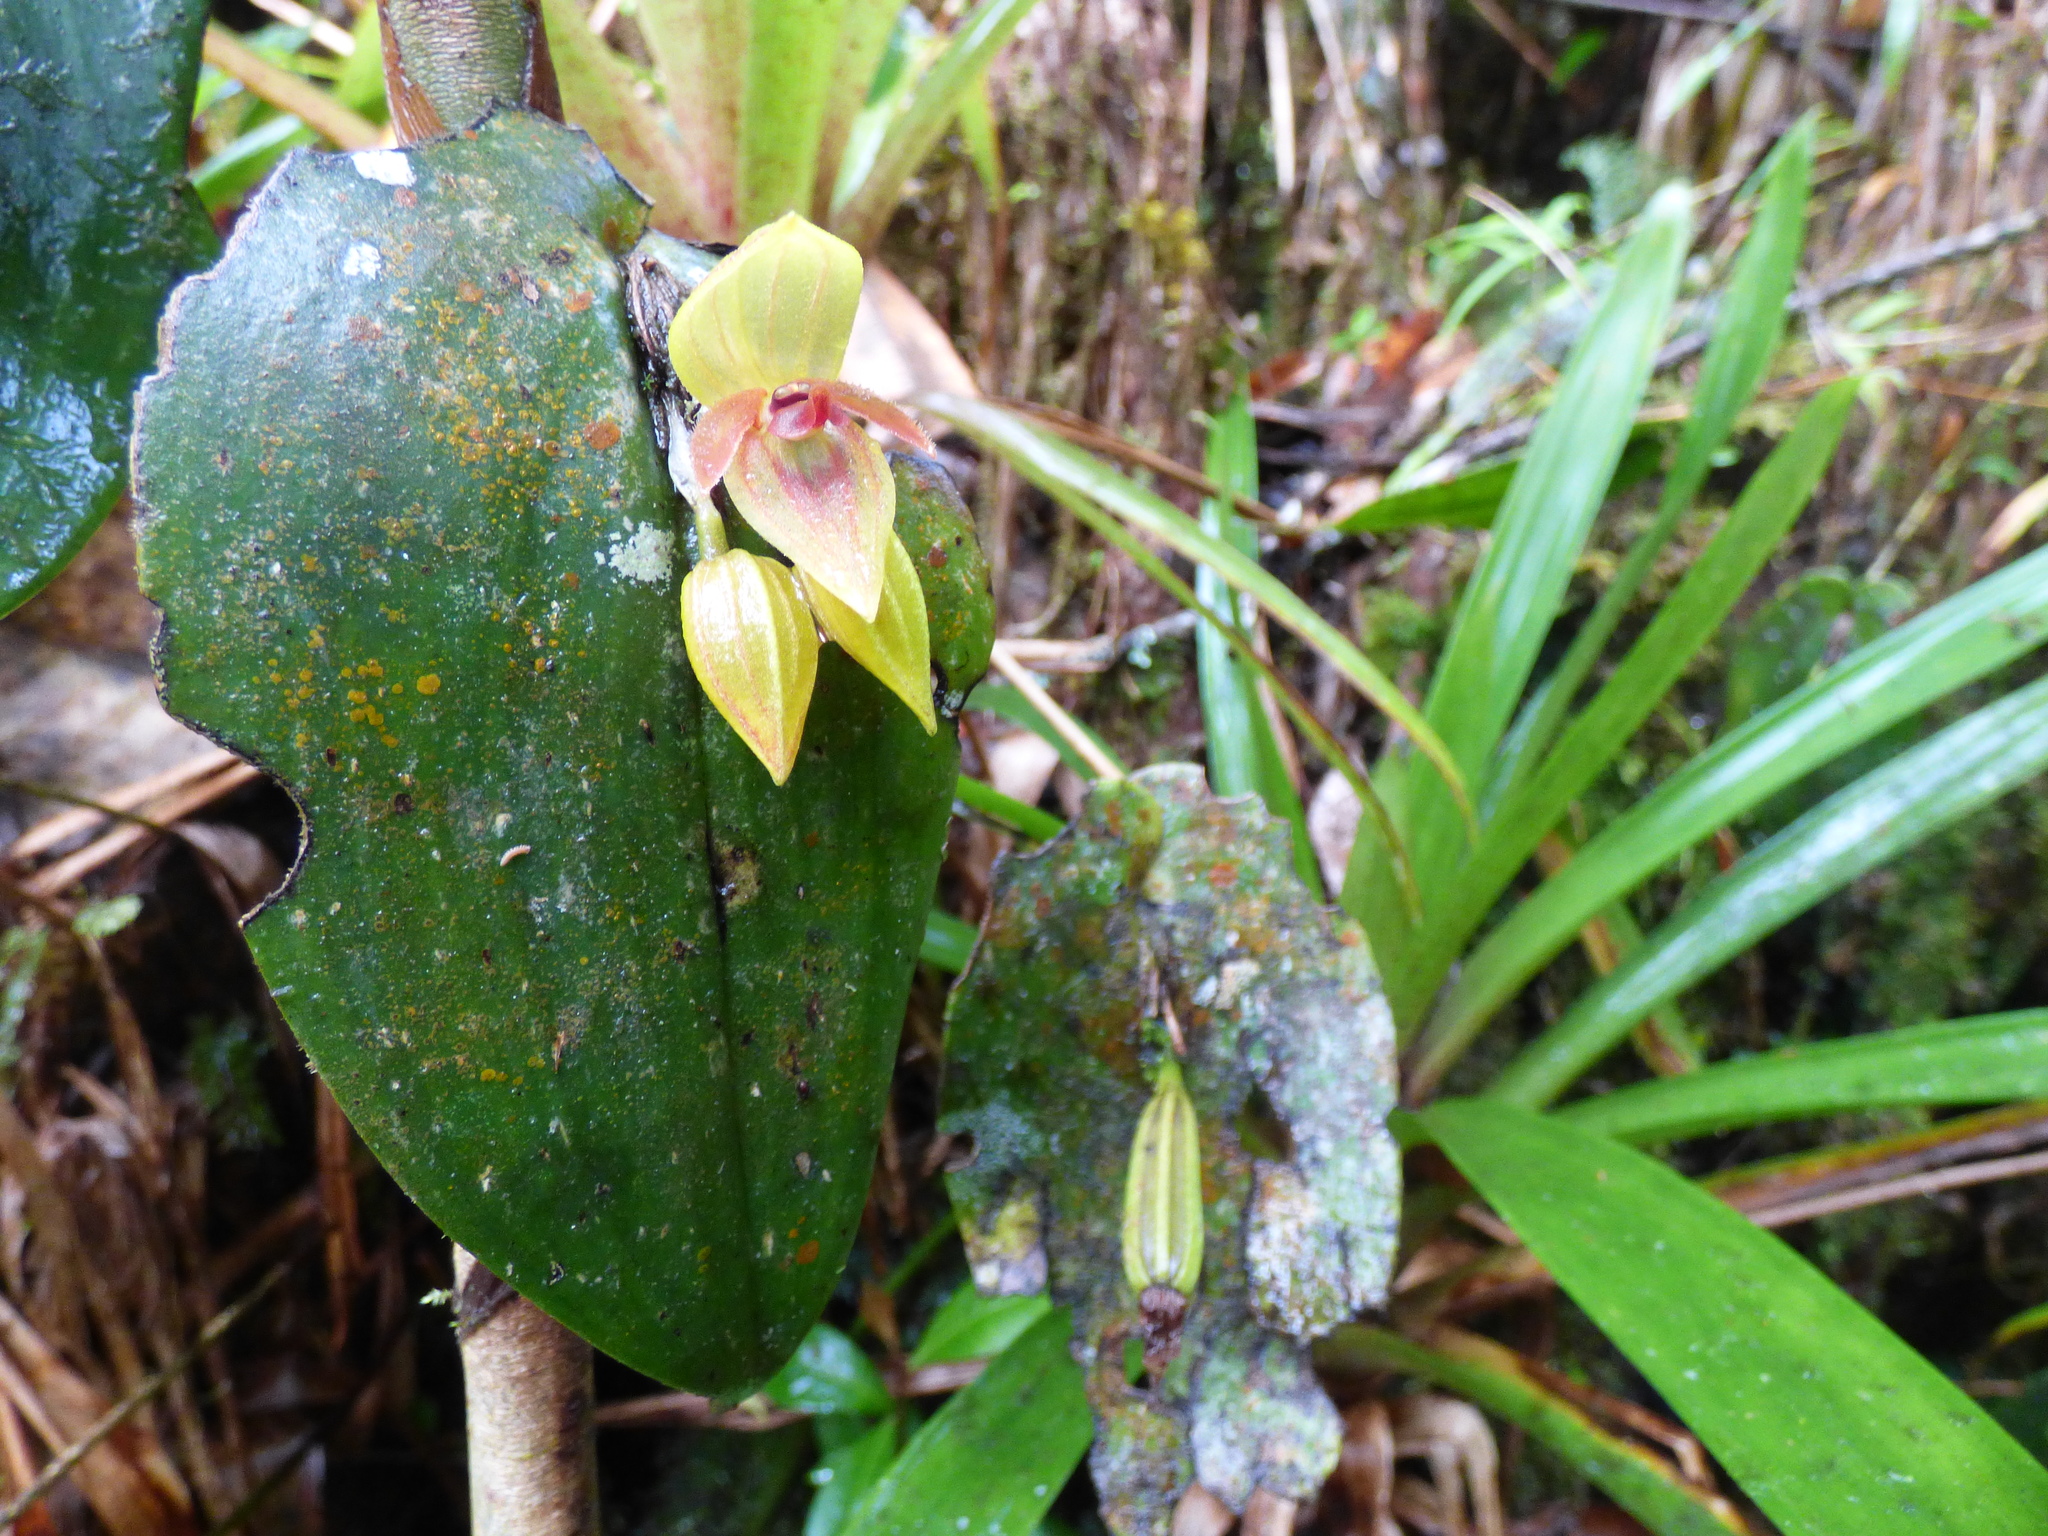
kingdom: Plantae
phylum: Tracheophyta
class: Liliopsida
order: Asparagales
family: Orchidaceae
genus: Pleurothallis
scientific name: Pleurothallis siphoglossa
